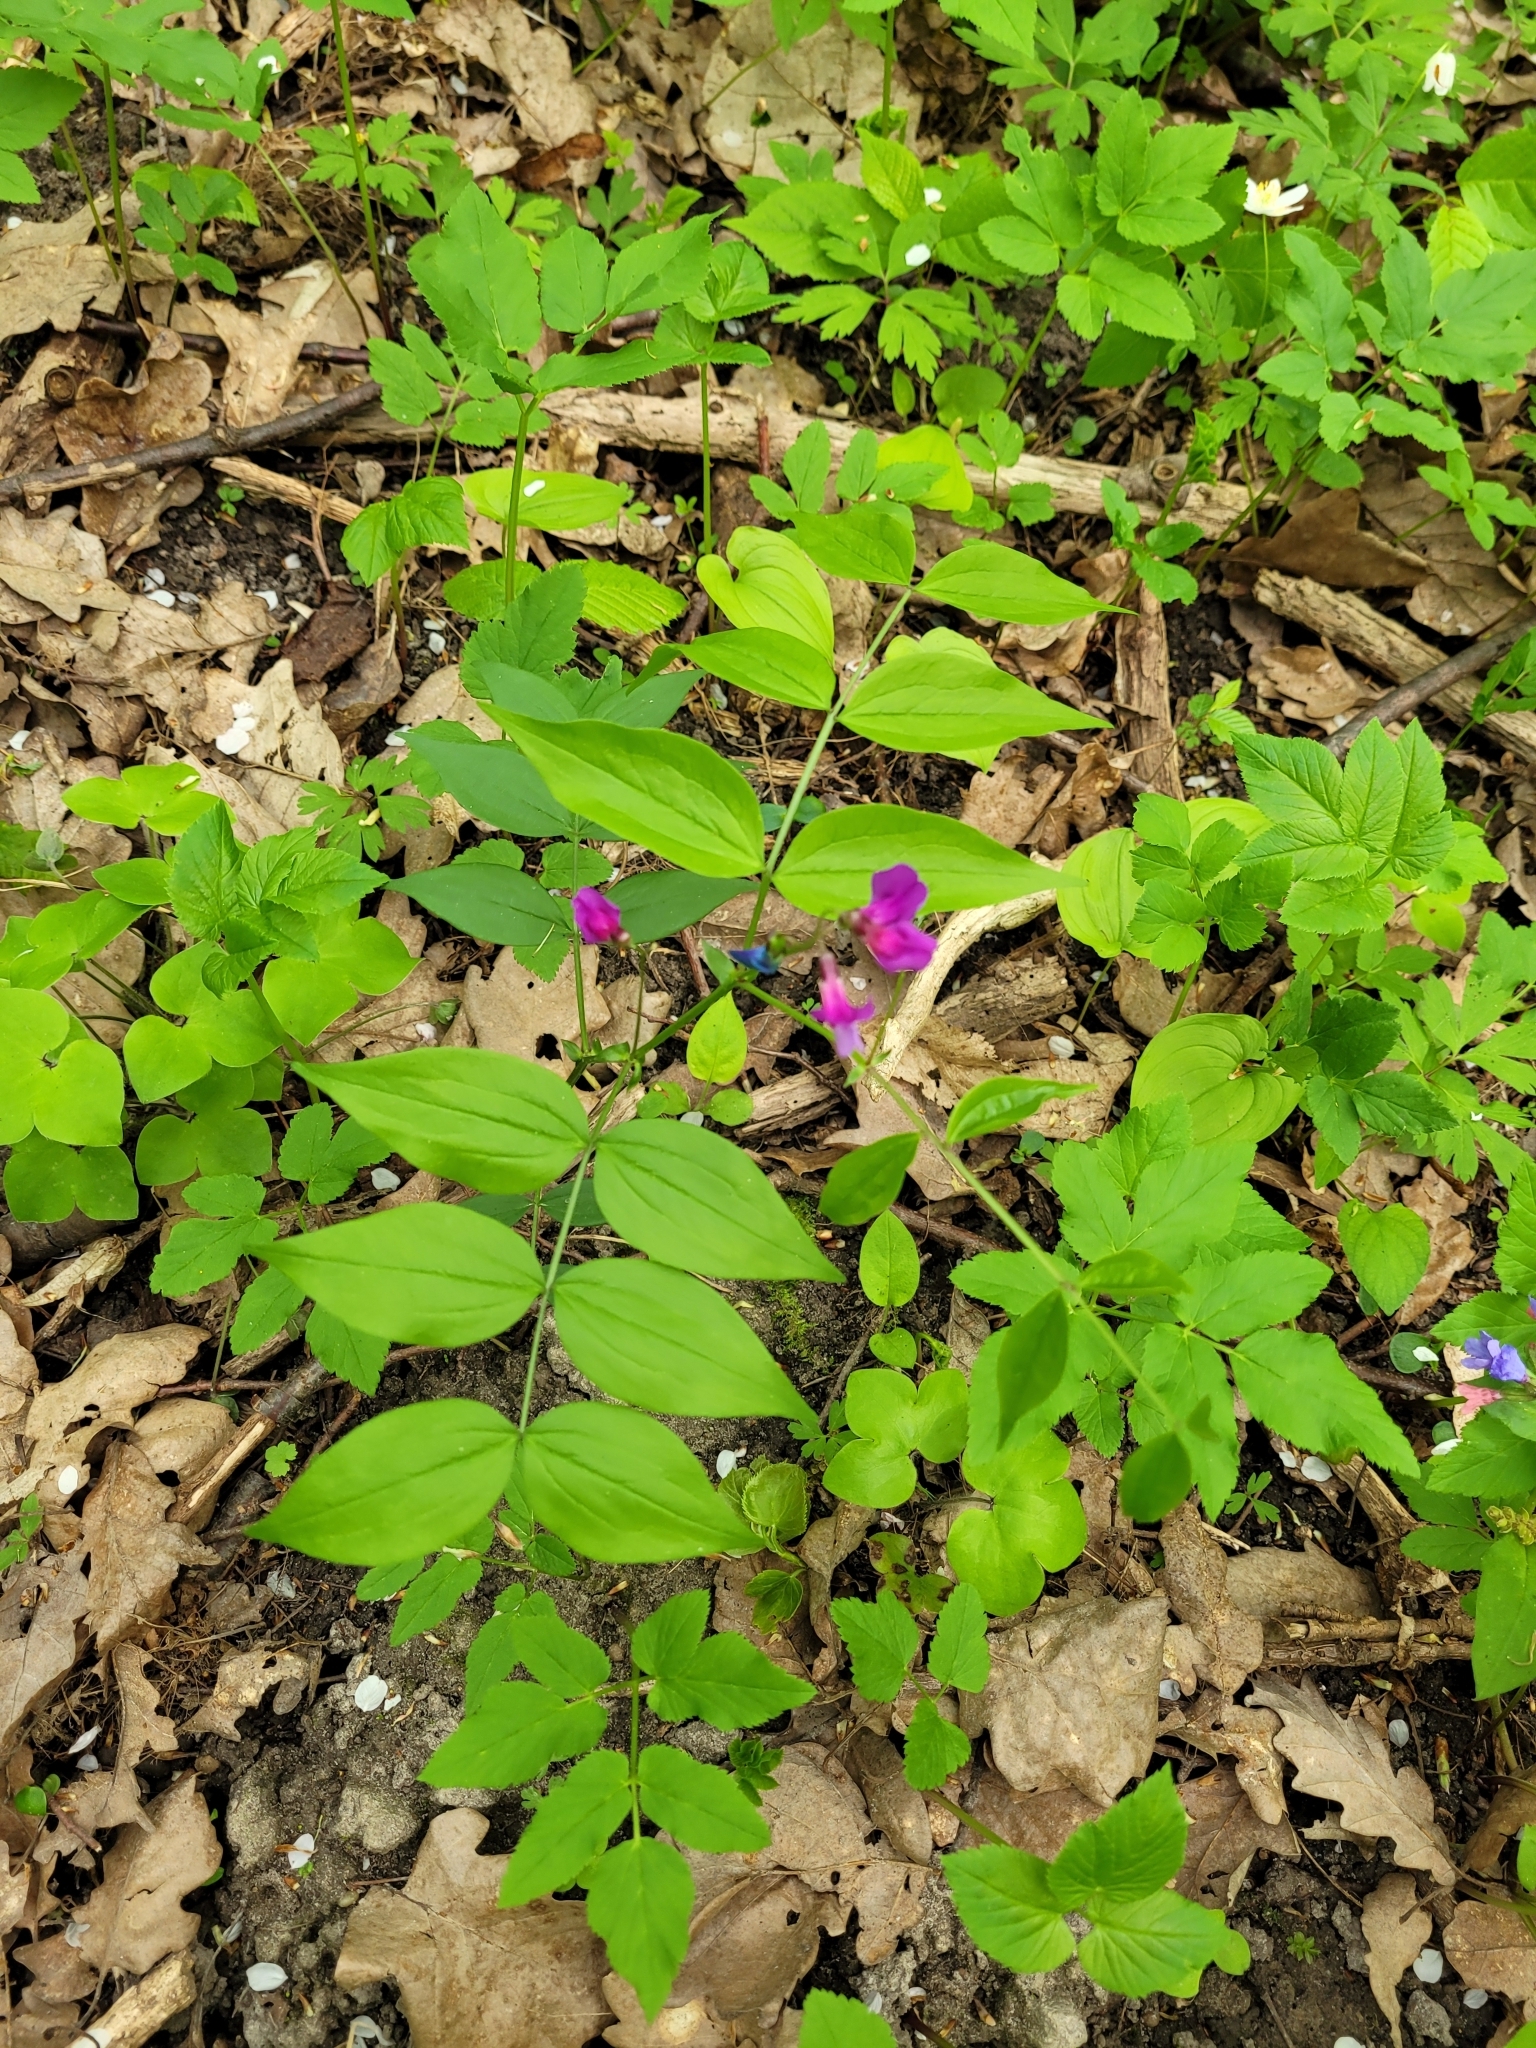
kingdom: Plantae
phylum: Tracheophyta
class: Magnoliopsida
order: Fabales
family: Fabaceae
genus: Lathyrus
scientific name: Lathyrus vernus
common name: Spring pea
